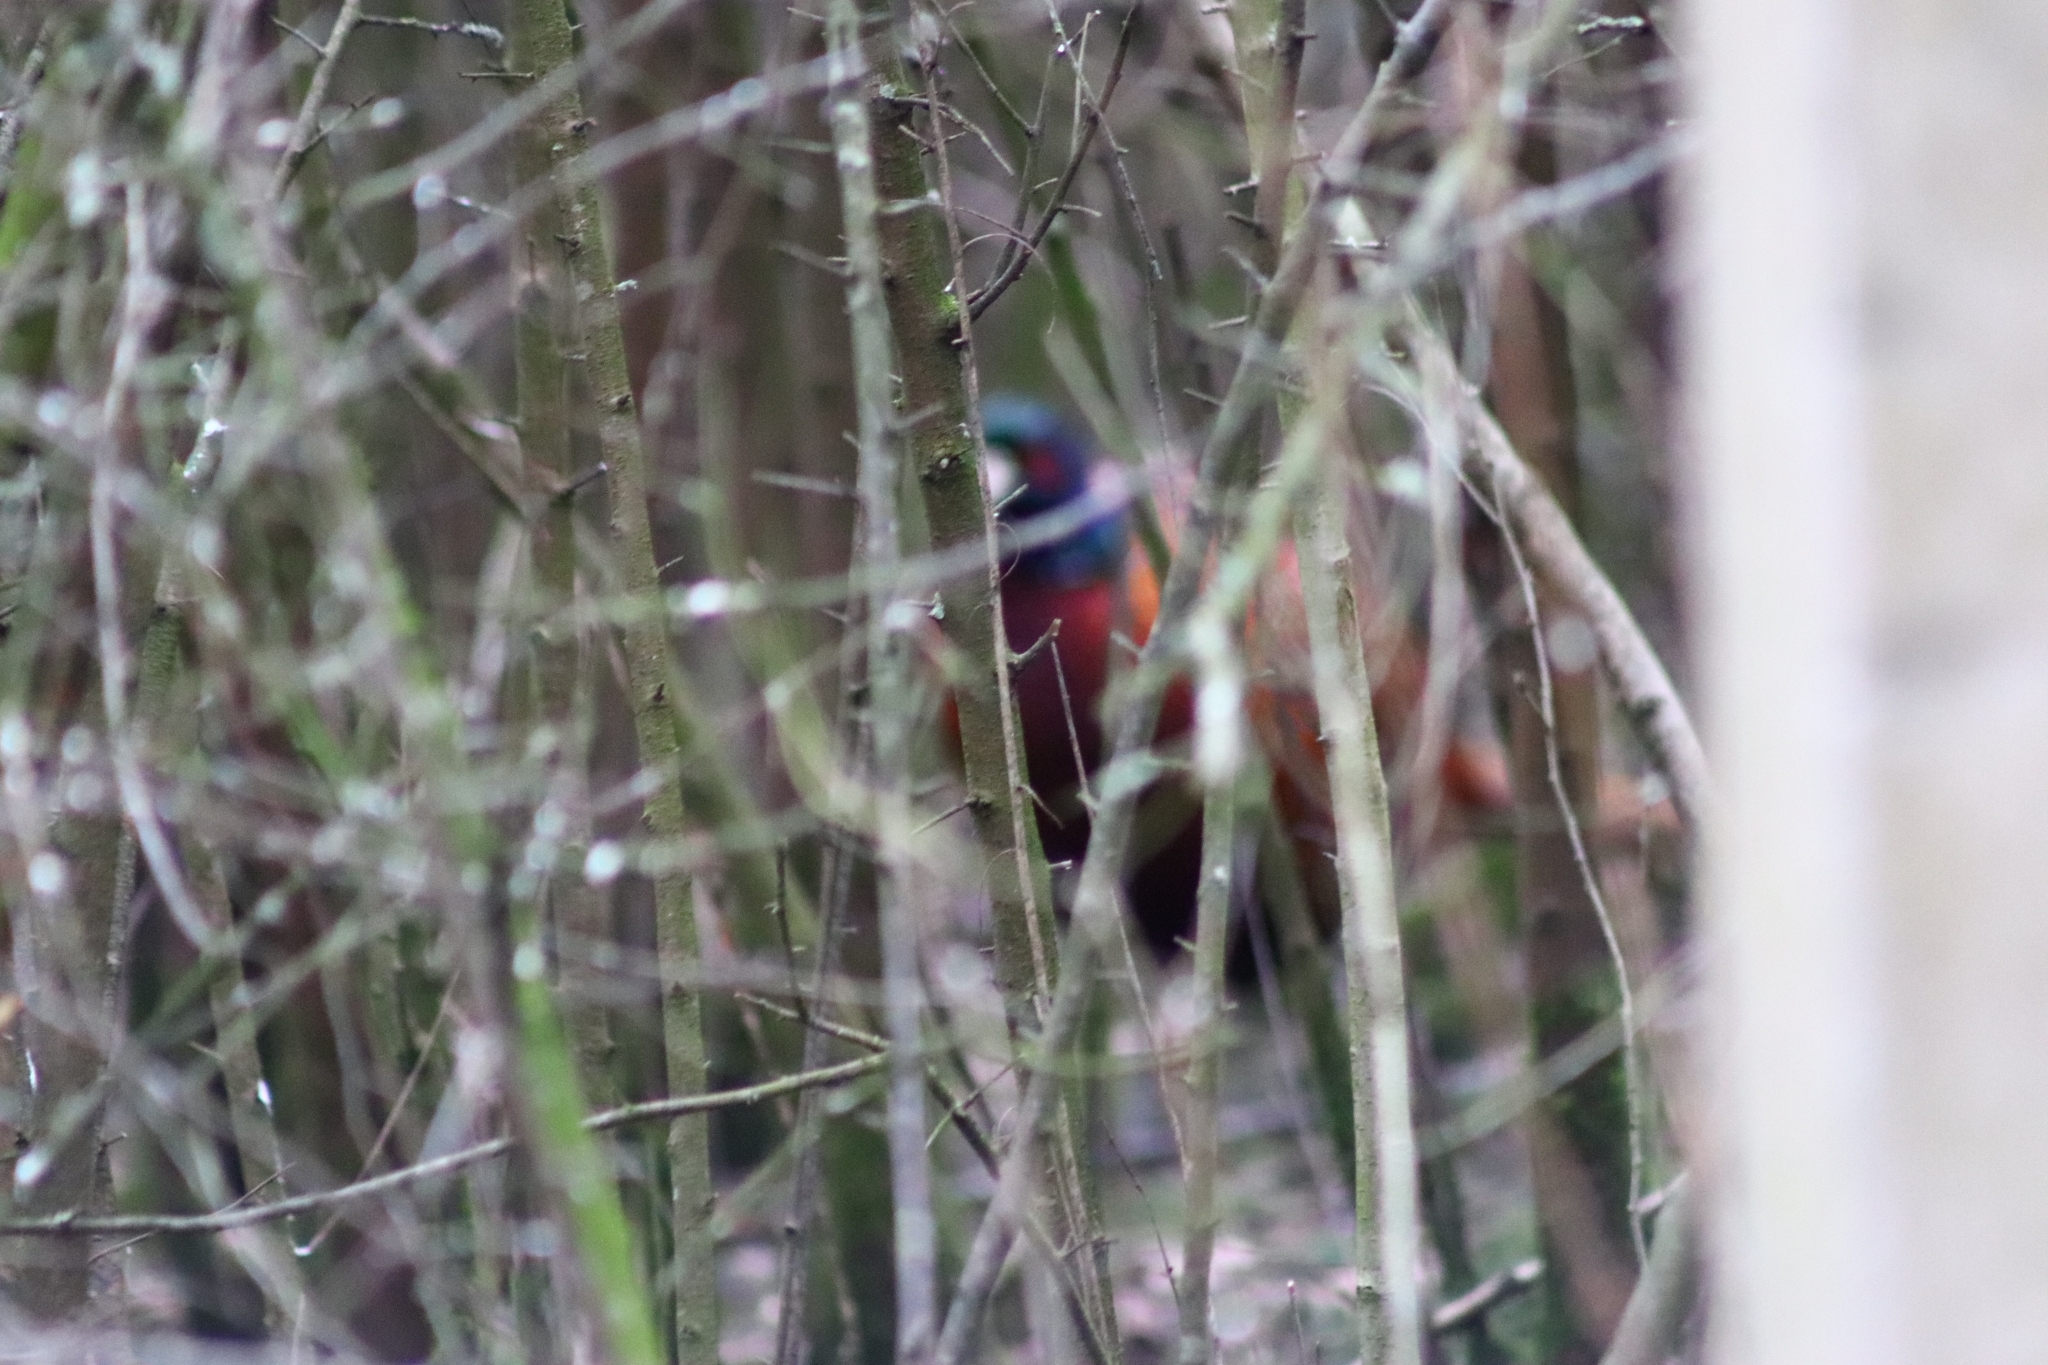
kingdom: Animalia
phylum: Chordata
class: Aves
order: Galliformes
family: Phasianidae
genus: Phasianus
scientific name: Phasianus colchicus
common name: Common pheasant
